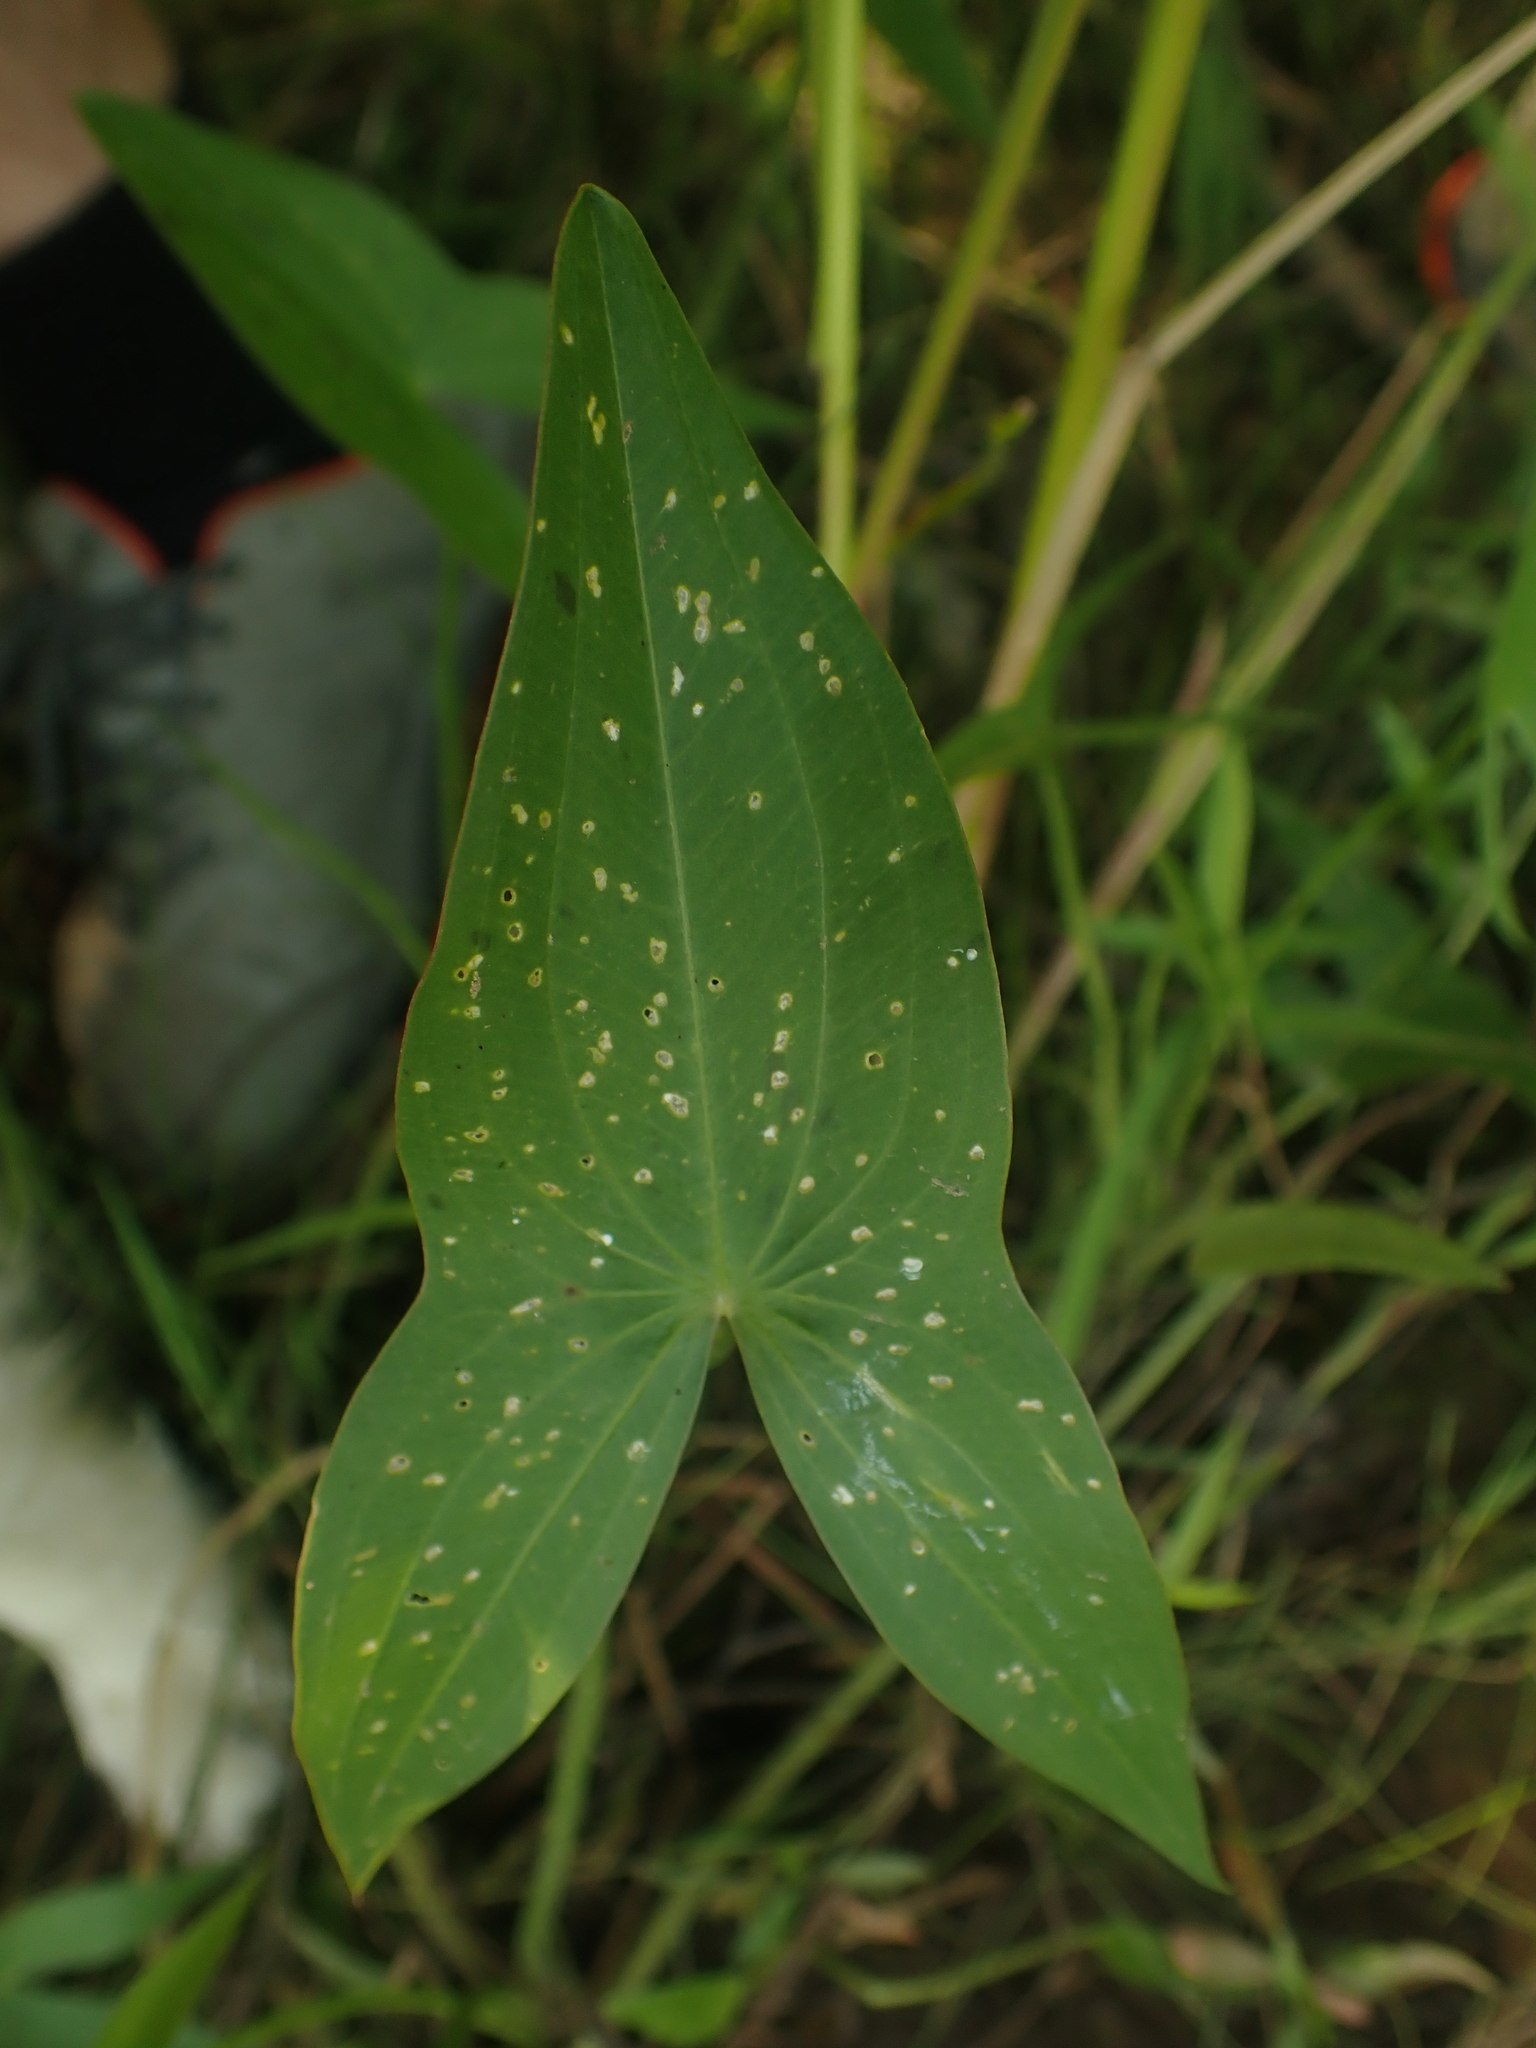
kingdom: Plantae
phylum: Tracheophyta
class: Liliopsida
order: Alismatales
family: Alismataceae
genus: Sagittaria
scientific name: Sagittaria latifolia
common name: Duck-potato
